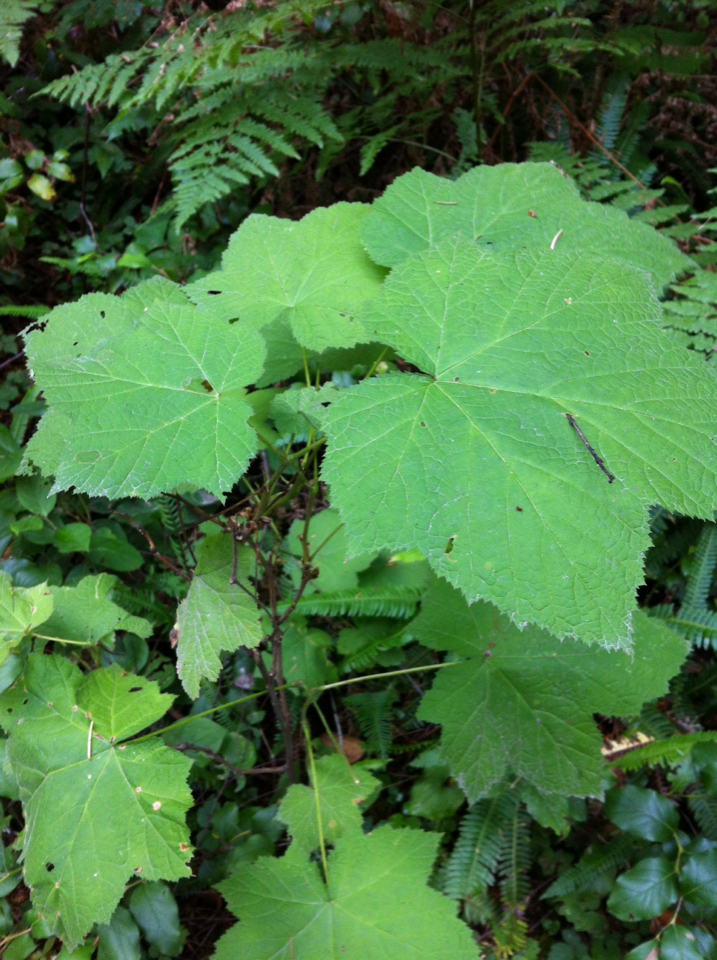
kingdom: Plantae
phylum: Tracheophyta
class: Magnoliopsida
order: Rosales
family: Rosaceae
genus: Rubus
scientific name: Rubus parviflorus
